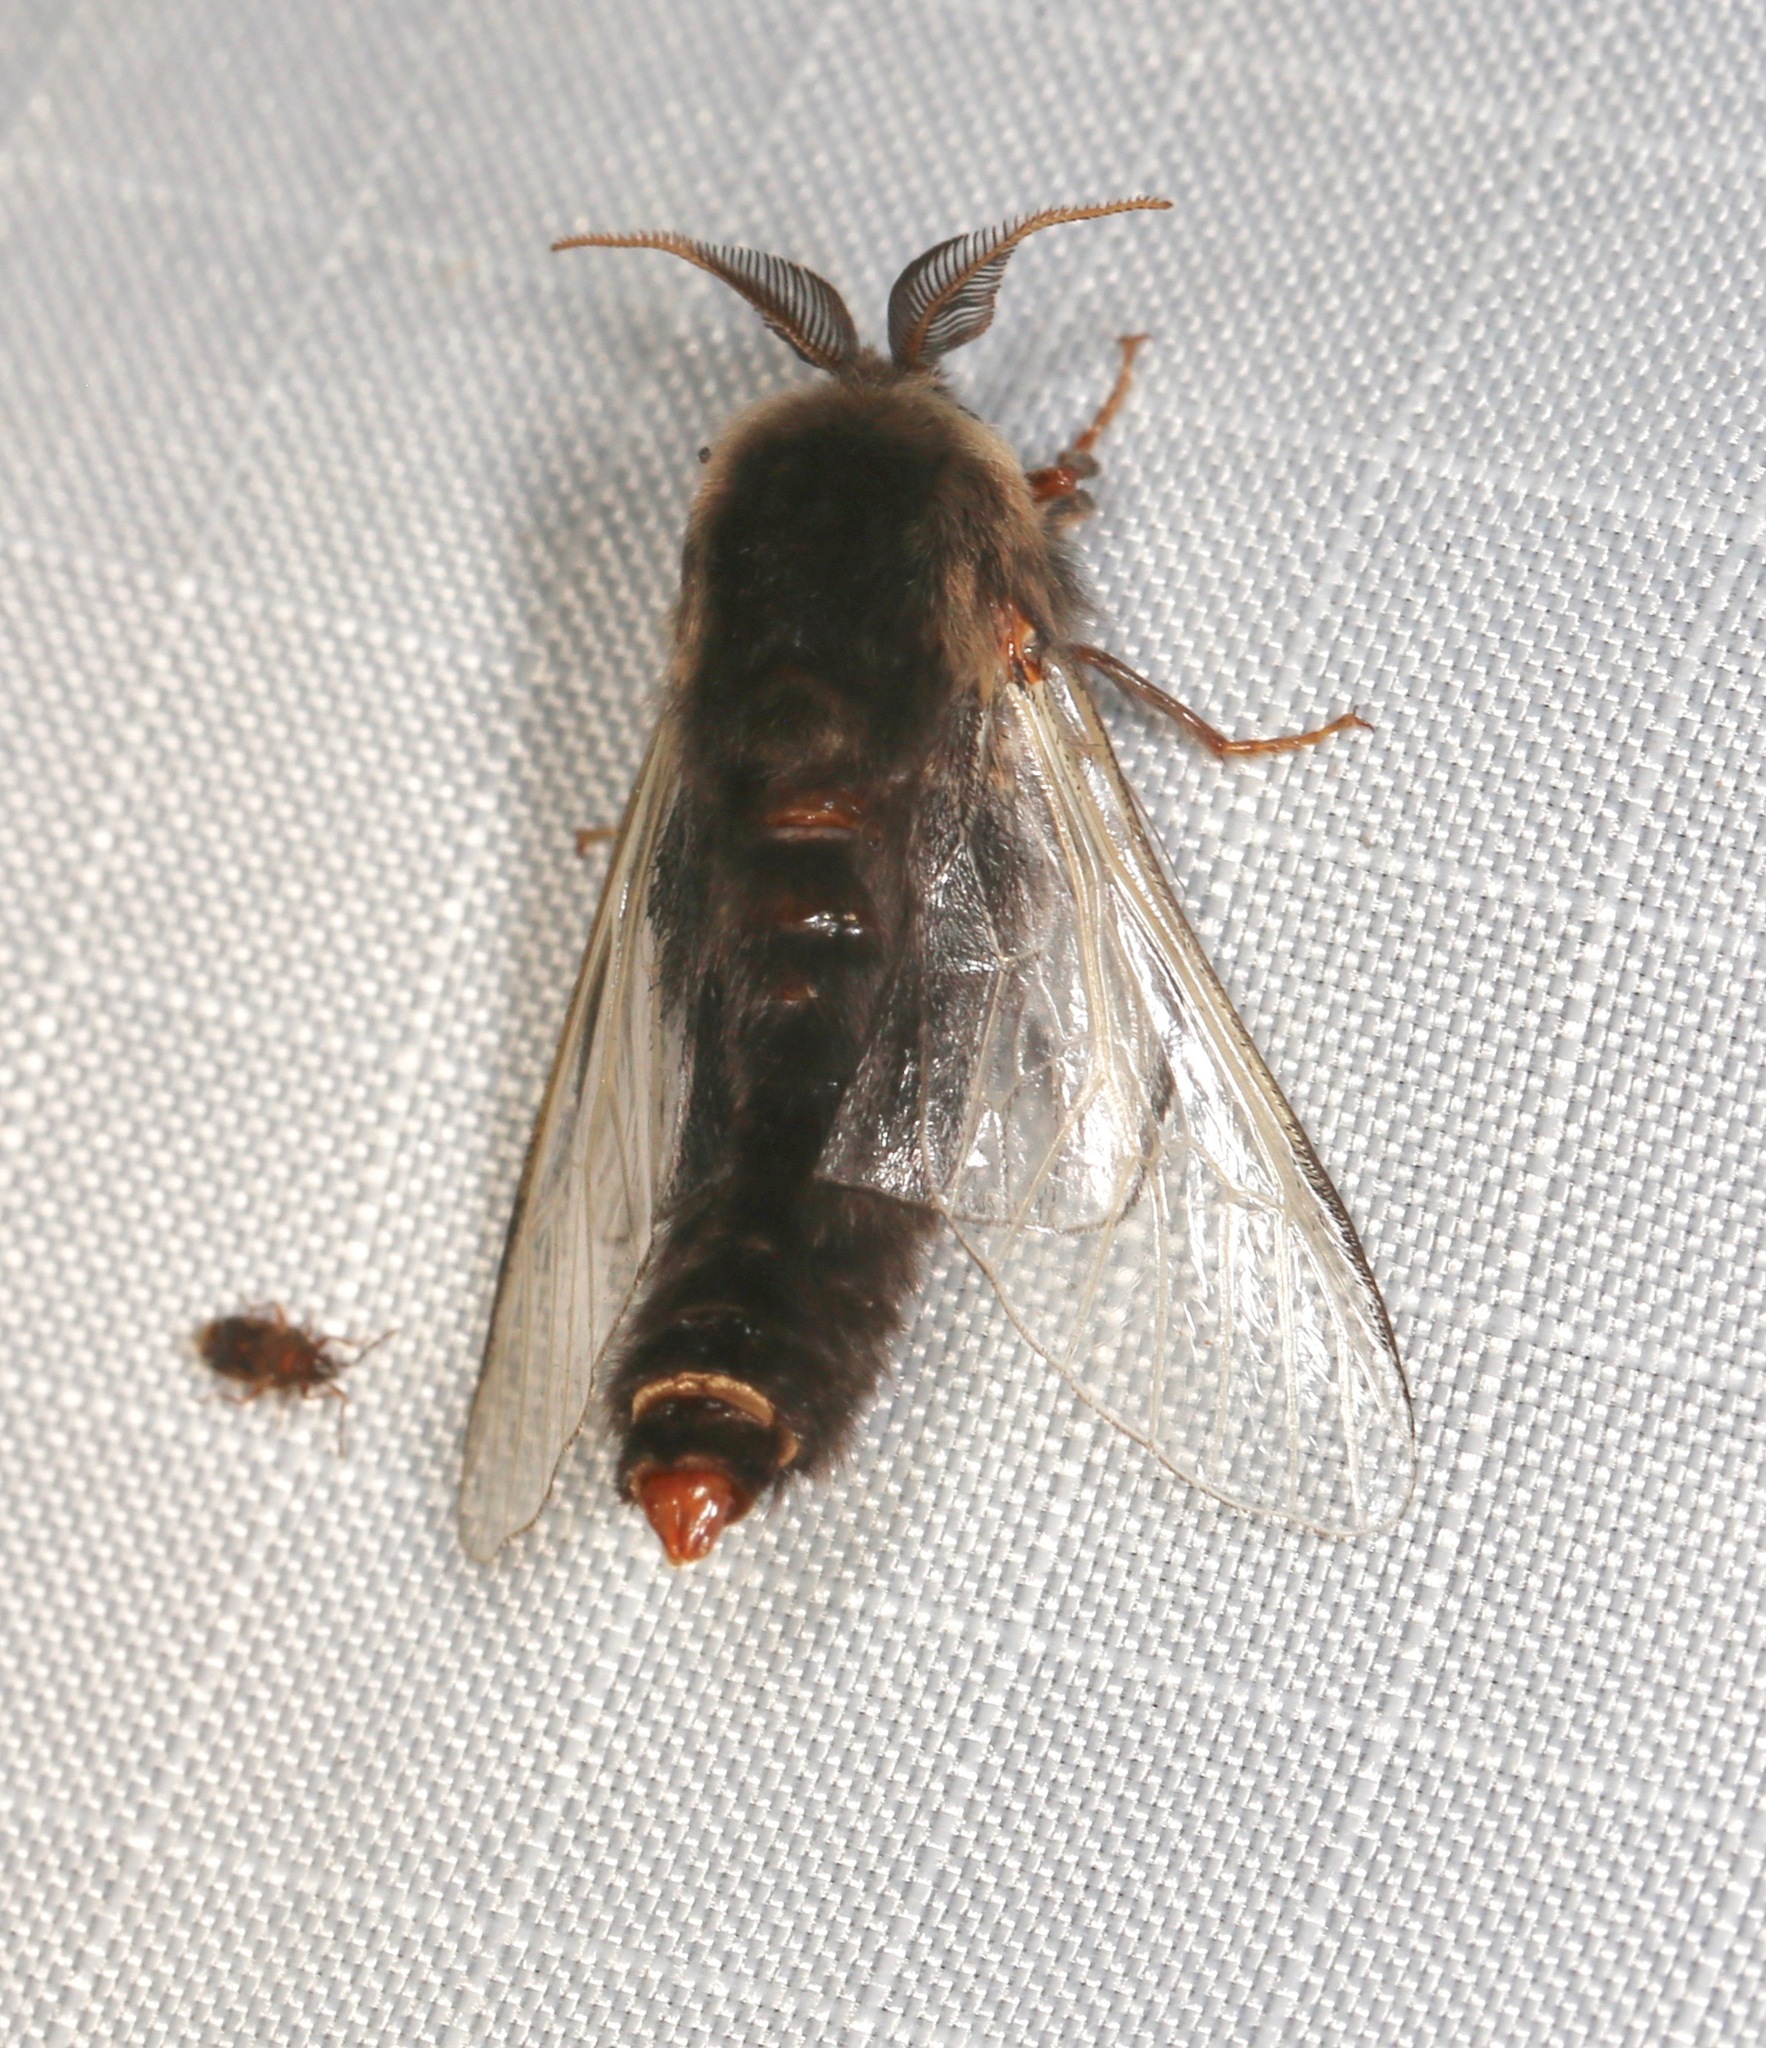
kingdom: Animalia
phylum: Arthropoda
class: Insecta
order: Lepidoptera
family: Psychidae
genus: Thyridopteryx
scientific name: Thyridopteryx ephemeraeformis
